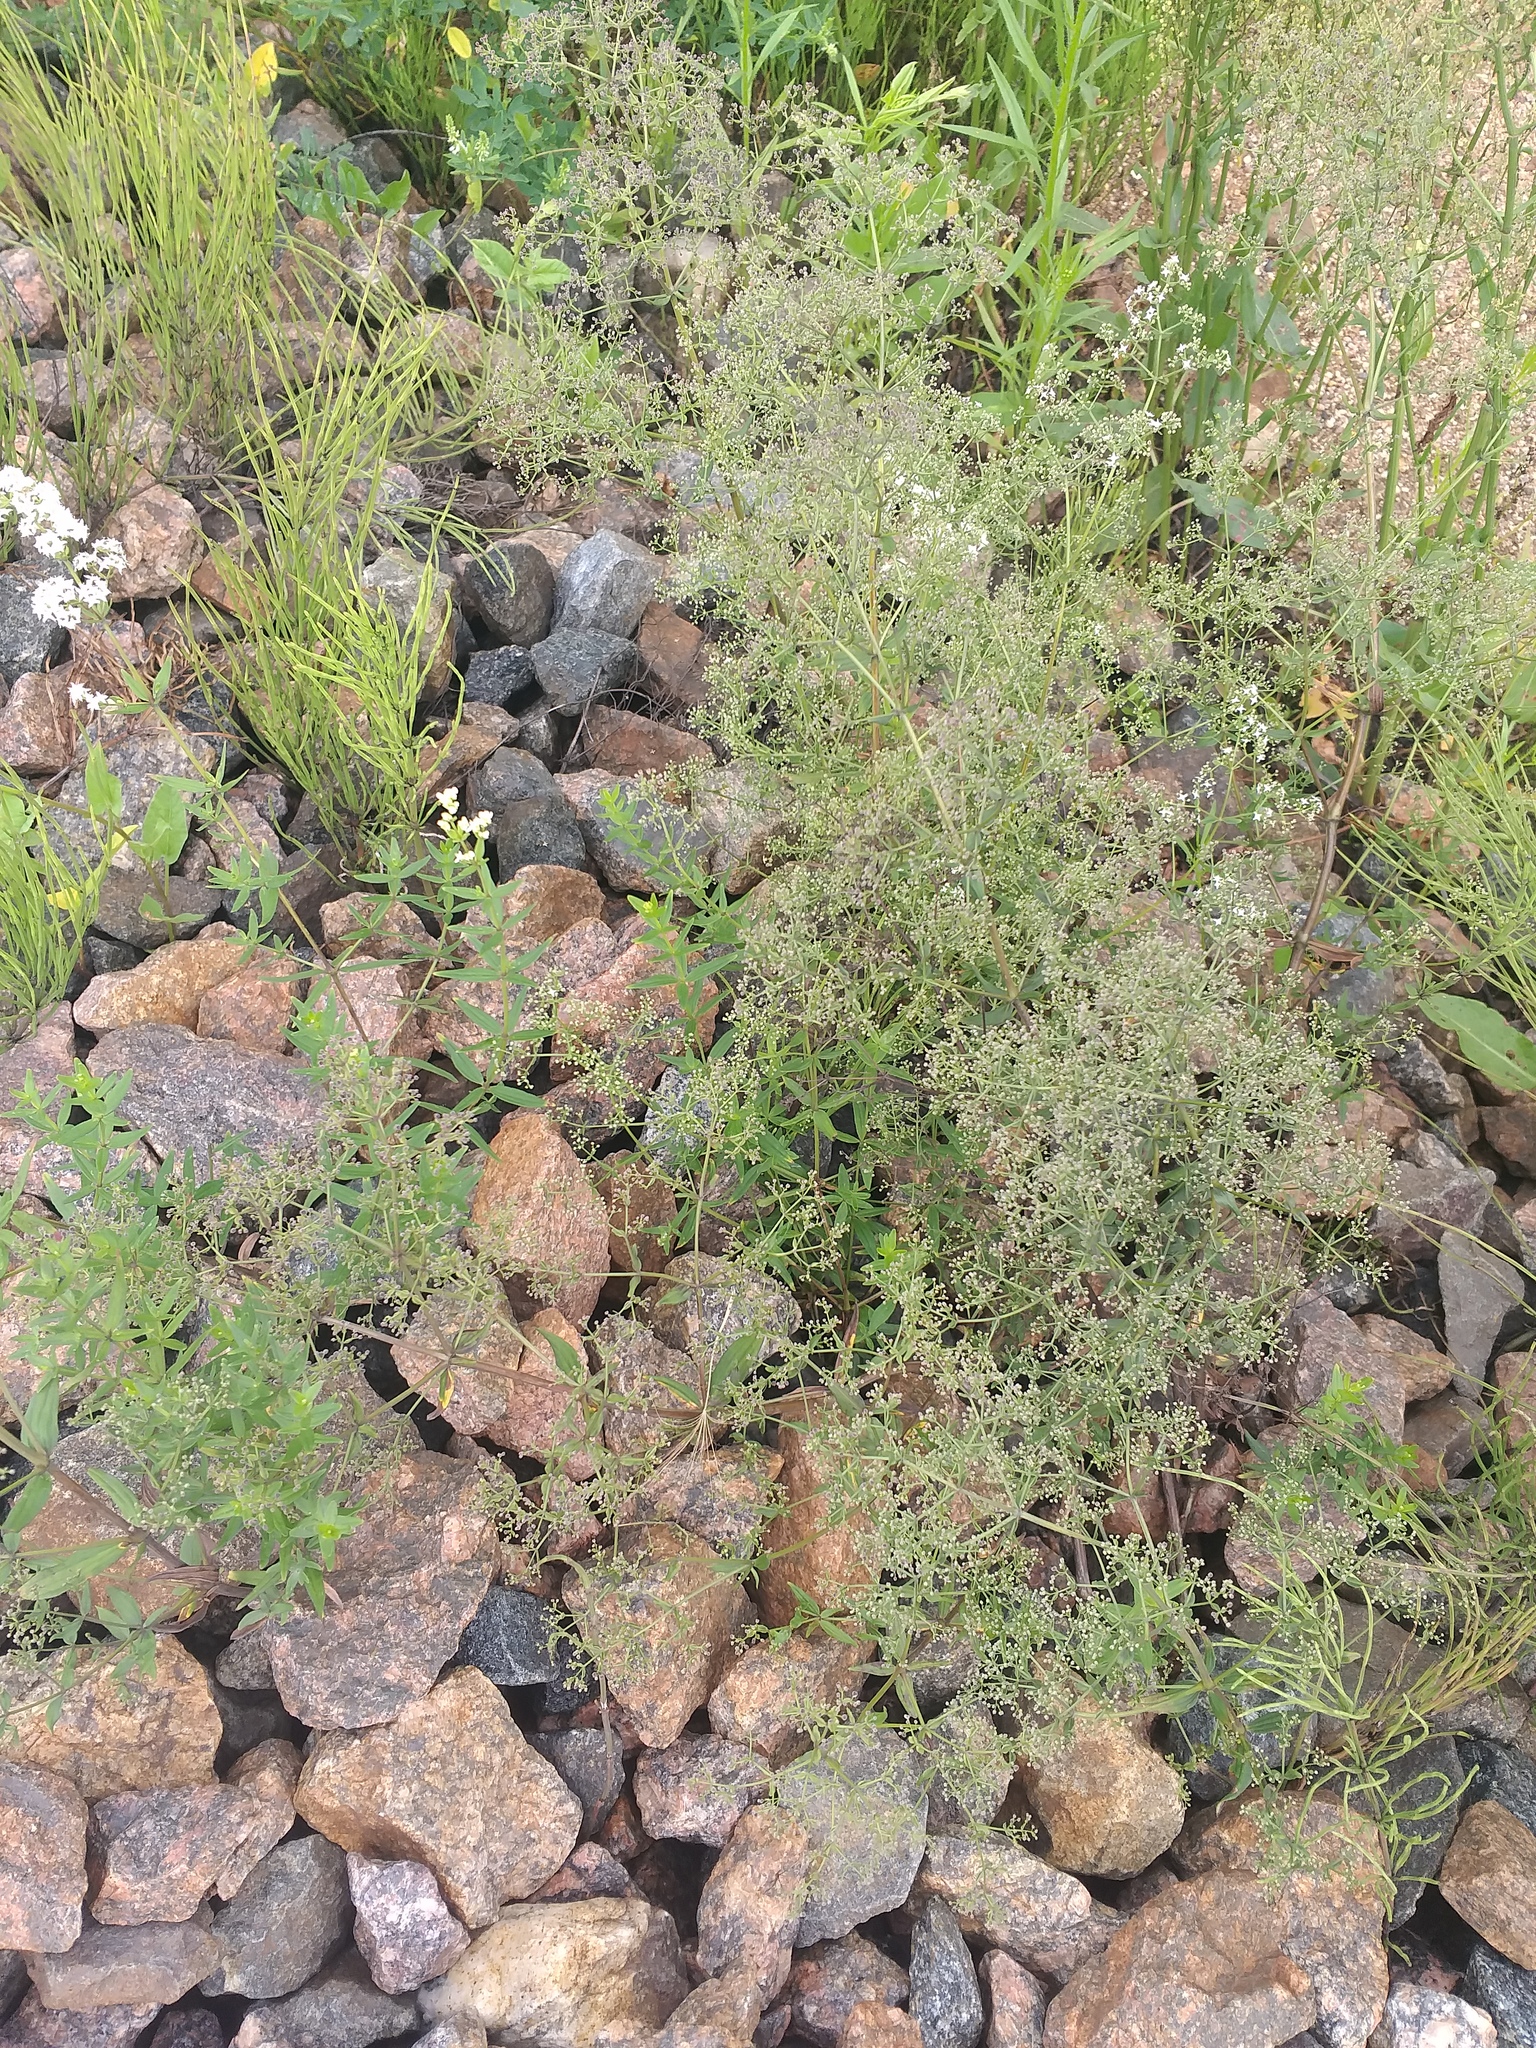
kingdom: Plantae
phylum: Tracheophyta
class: Magnoliopsida
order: Gentianales
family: Rubiaceae
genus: Galium
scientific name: Galium boreale
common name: Northern bedstraw
